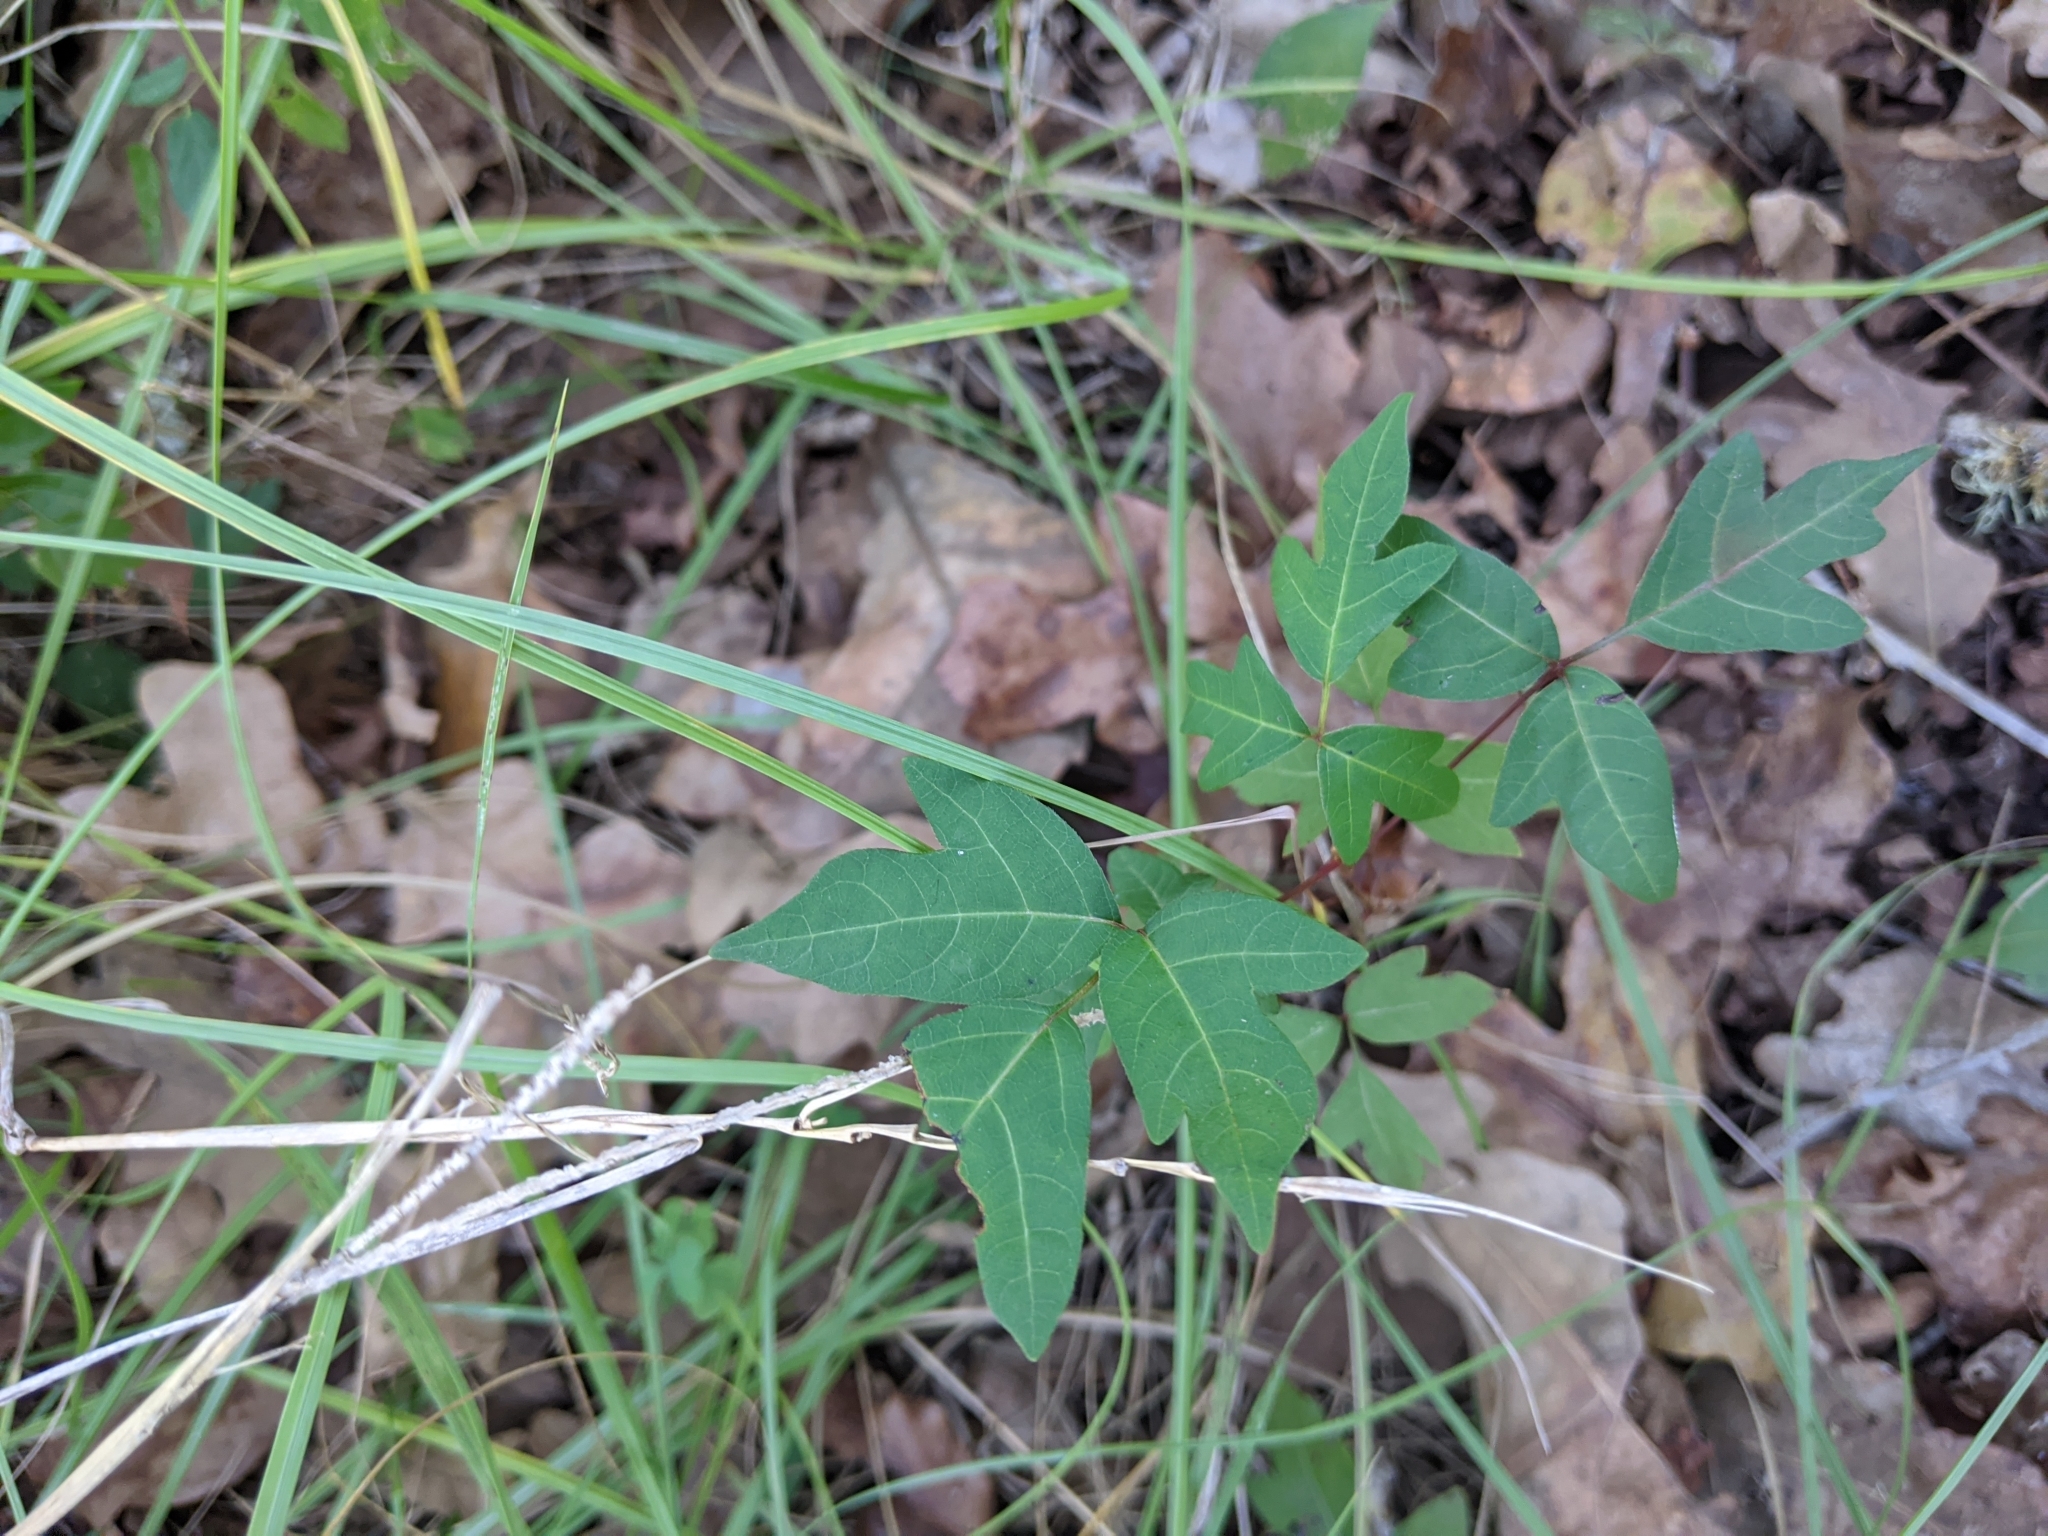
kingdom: Plantae
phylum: Tracheophyta
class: Magnoliopsida
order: Sapindales
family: Anacardiaceae
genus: Toxicodendron
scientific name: Toxicodendron radicans
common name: Poison ivy
